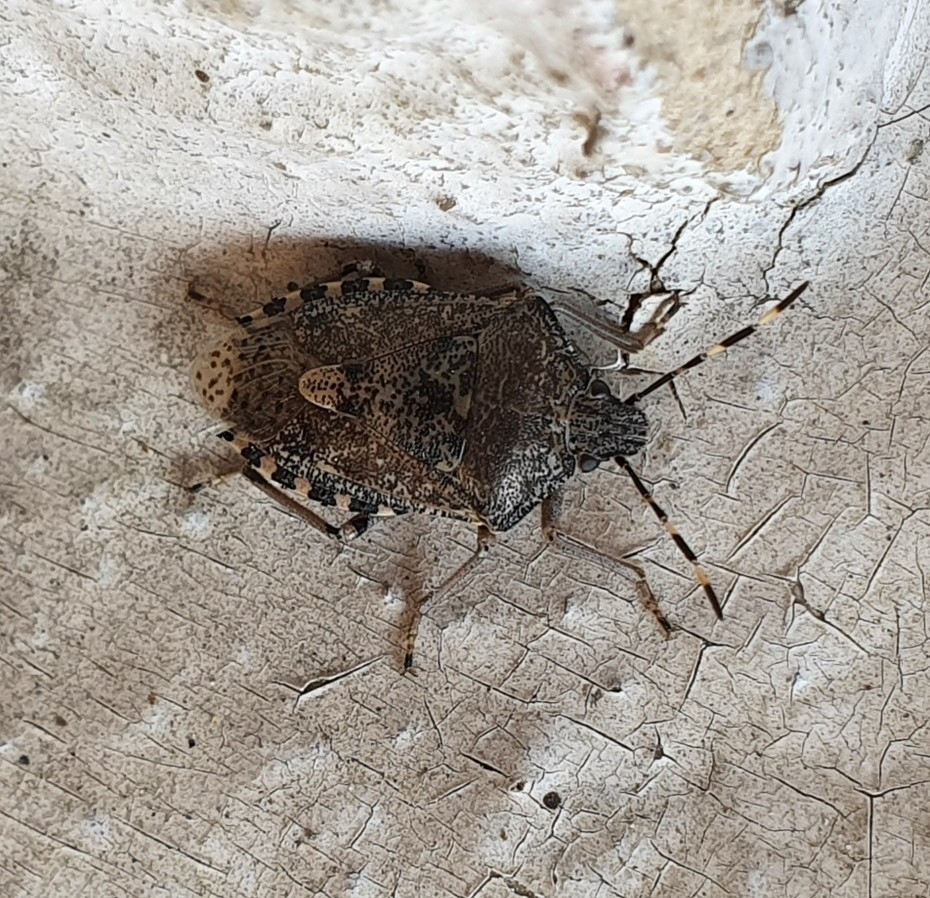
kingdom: Animalia
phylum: Arthropoda
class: Insecta
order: Hemiptera
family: Pentatomidae
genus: Rhaphigaster
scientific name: Rhaphigaster nebulosa
